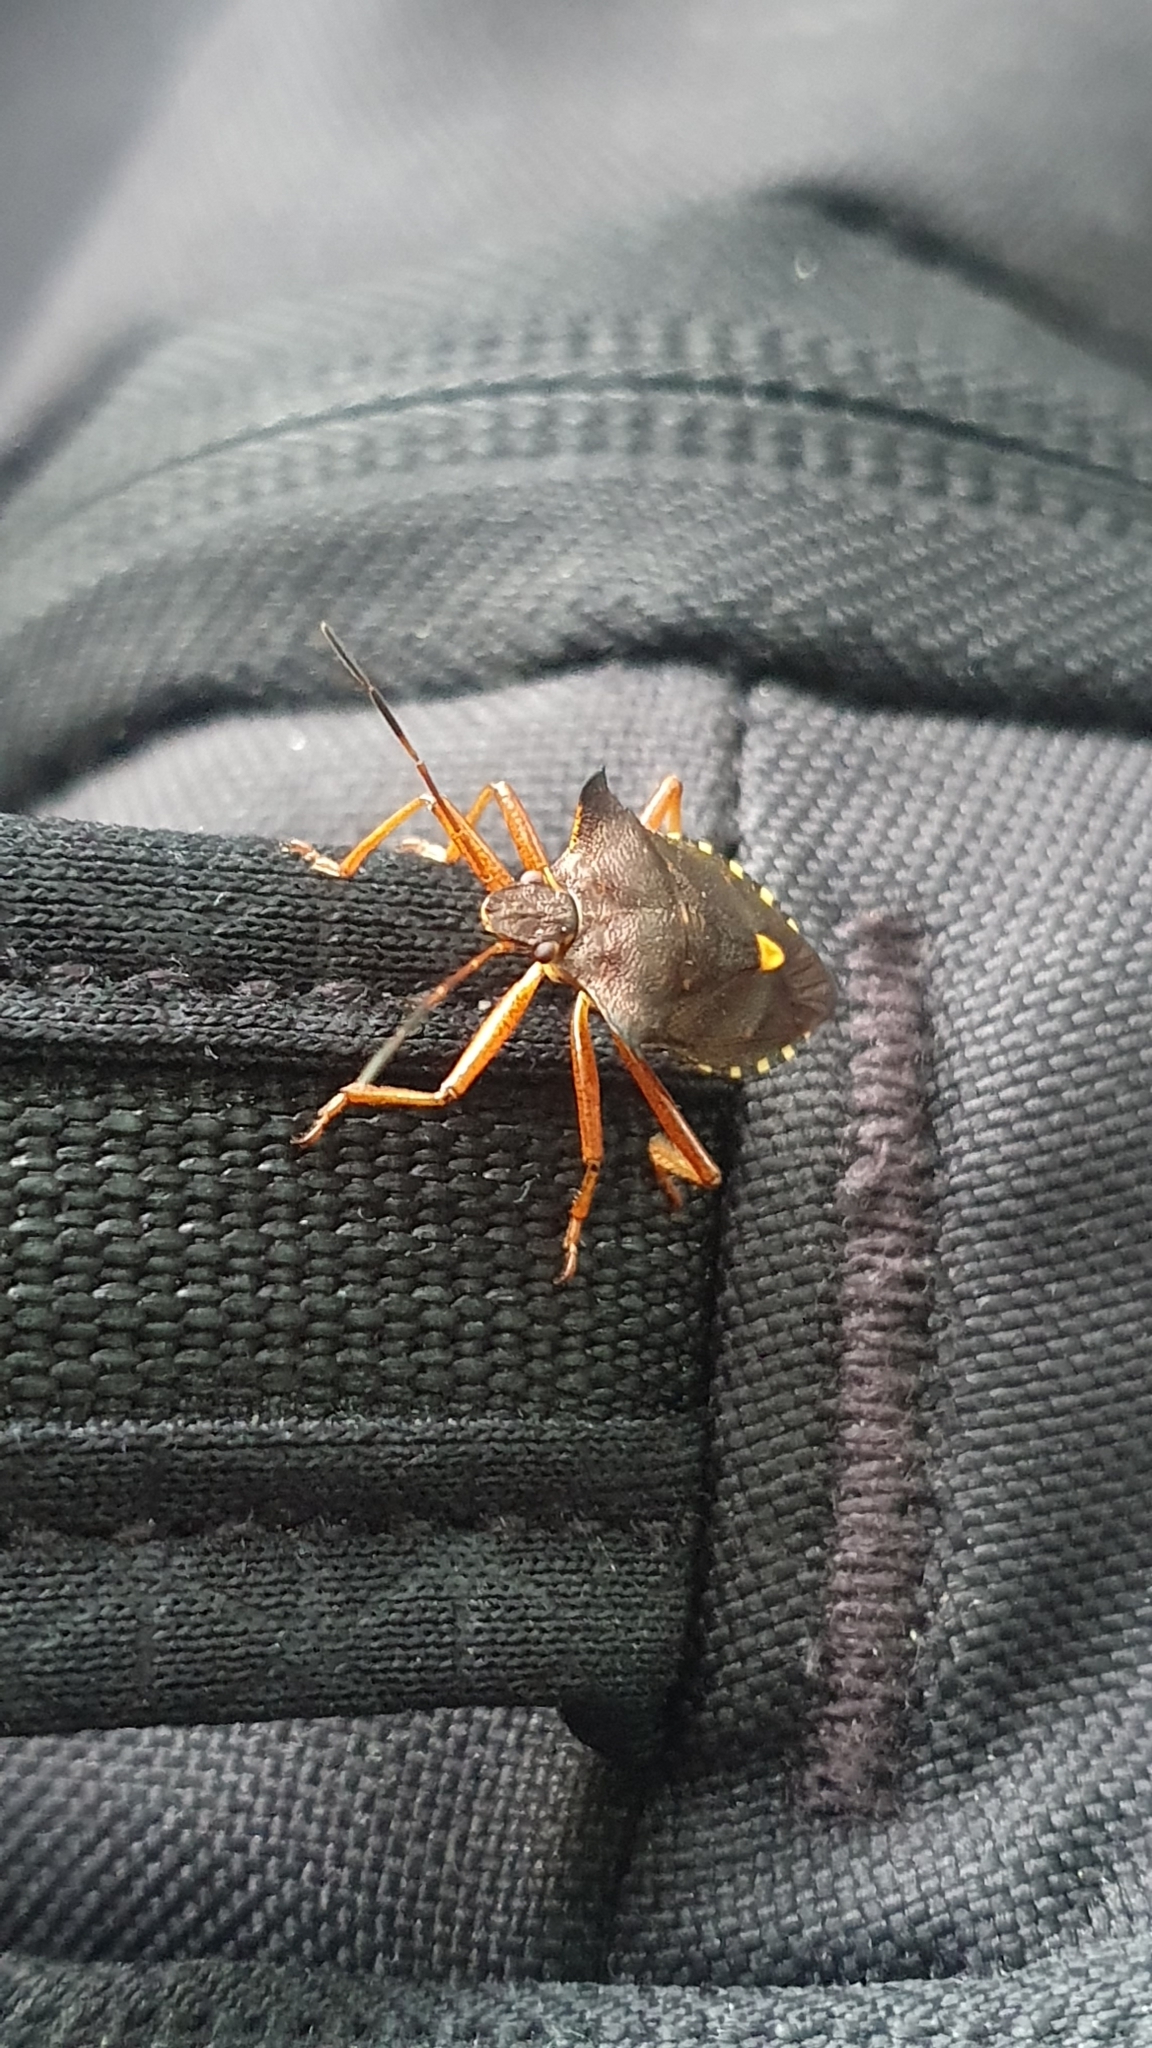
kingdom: Animalia
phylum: Arthropoda
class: Insecta
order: Hemiptera
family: Pentatomidae
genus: Pentatoma
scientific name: Pentatoma rufipes
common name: Forest bug
